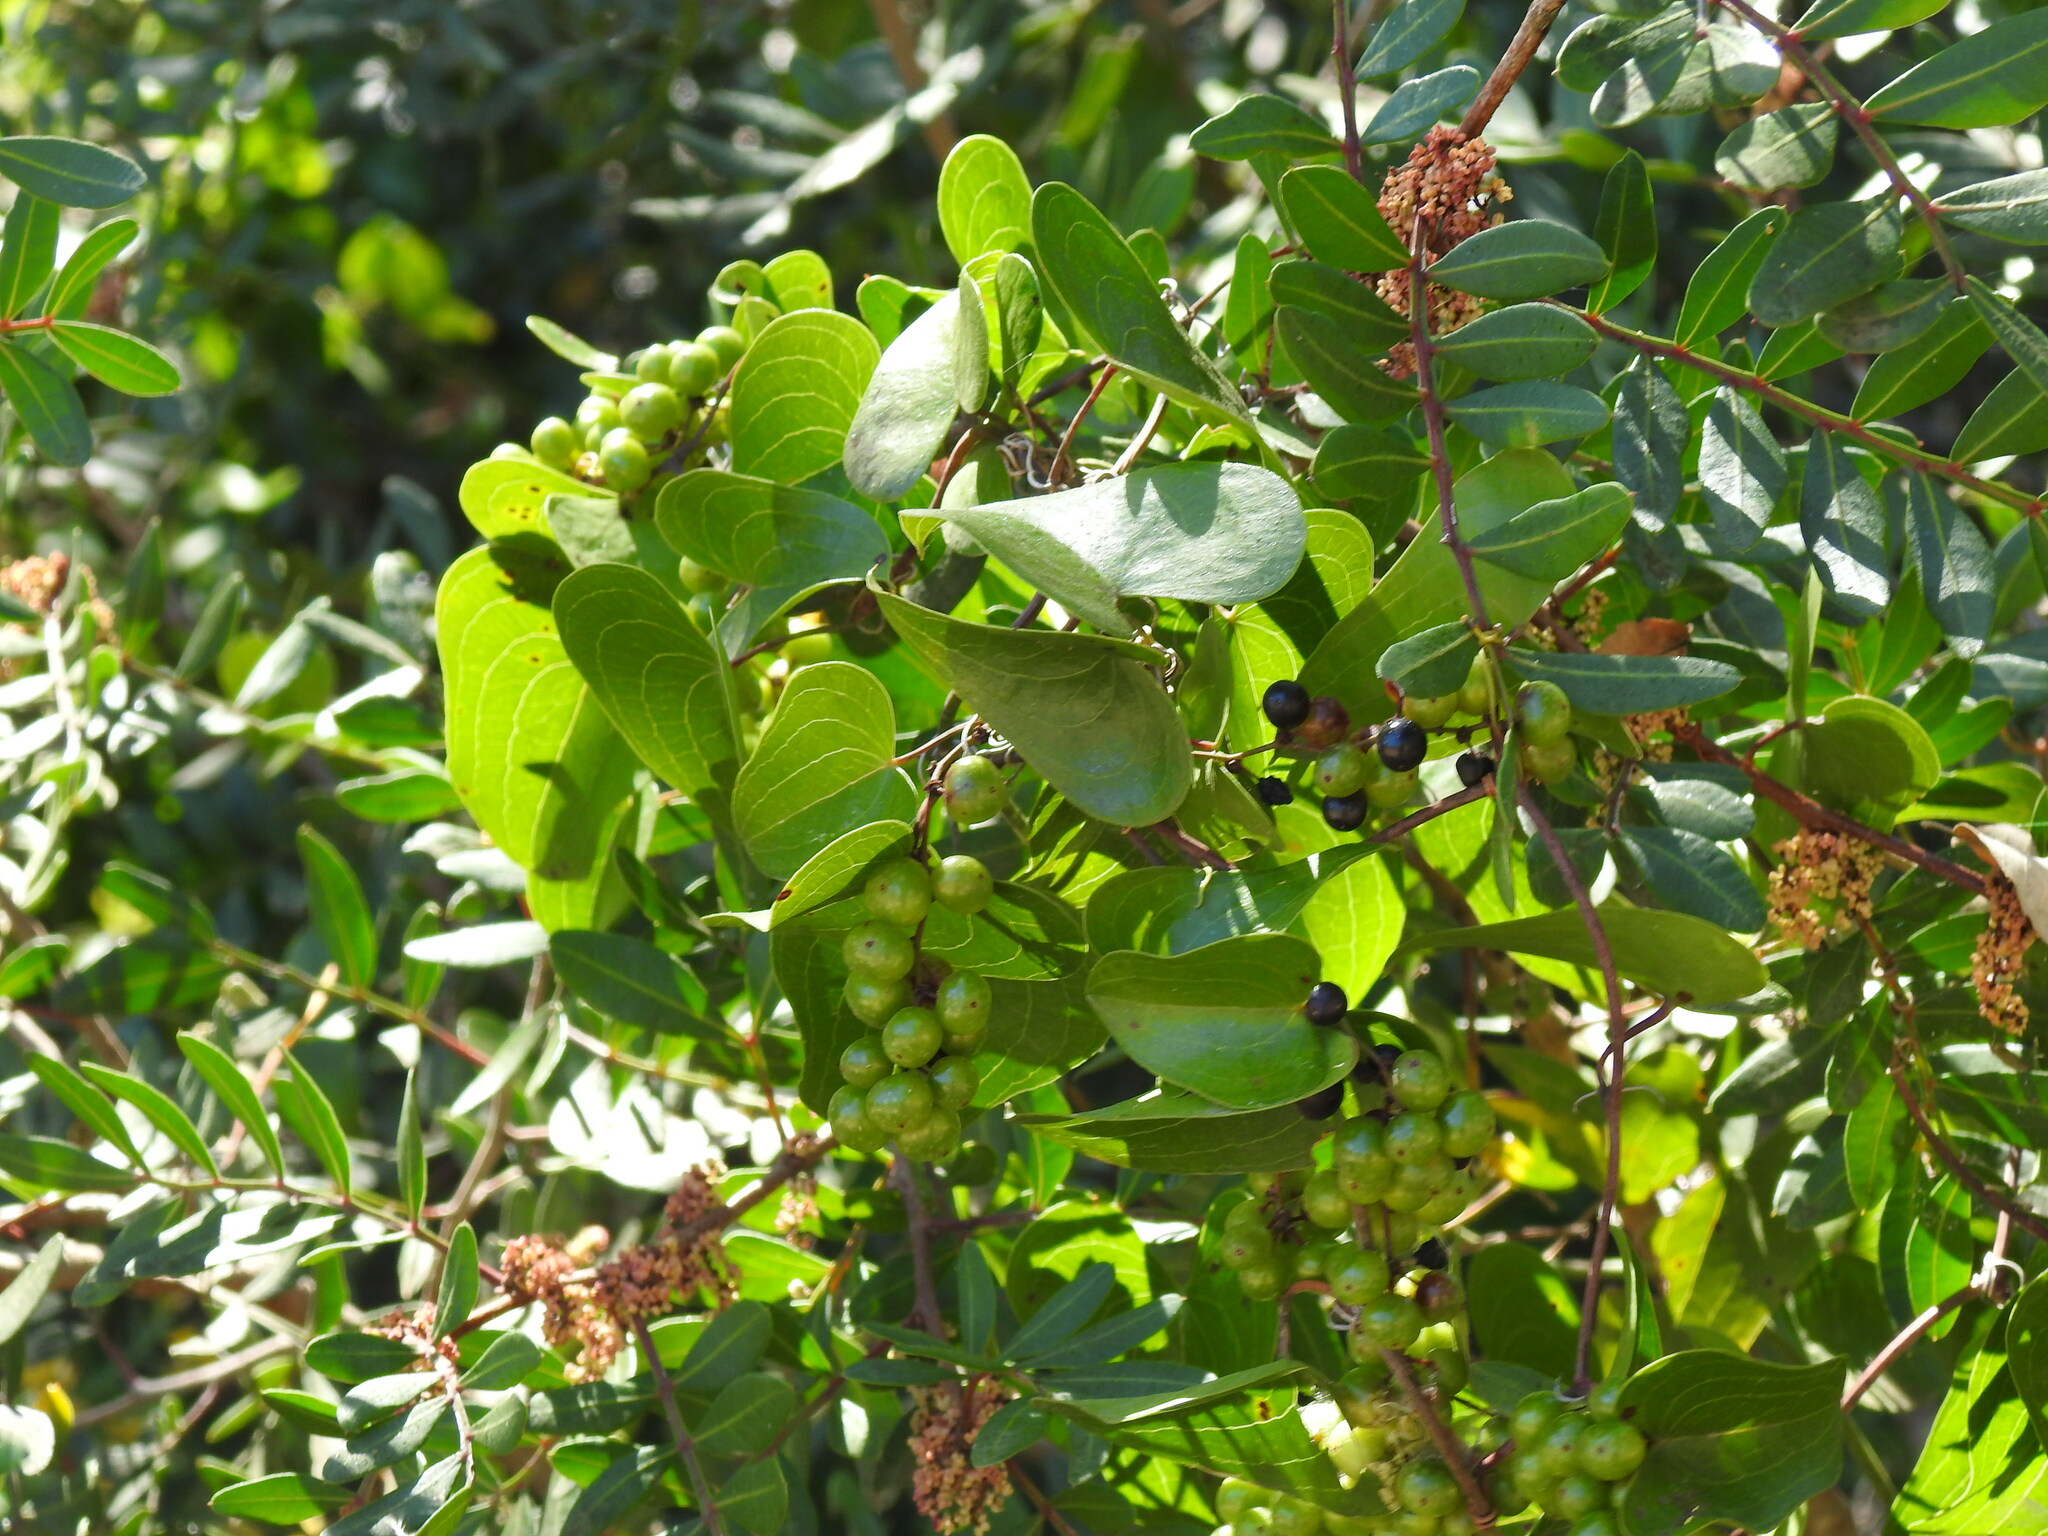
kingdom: Plantae
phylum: Tracheophyta
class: Liliopsida
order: Liliales
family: Smilacaceae
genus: Smilax
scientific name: Smilax aspera
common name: Common smilax
